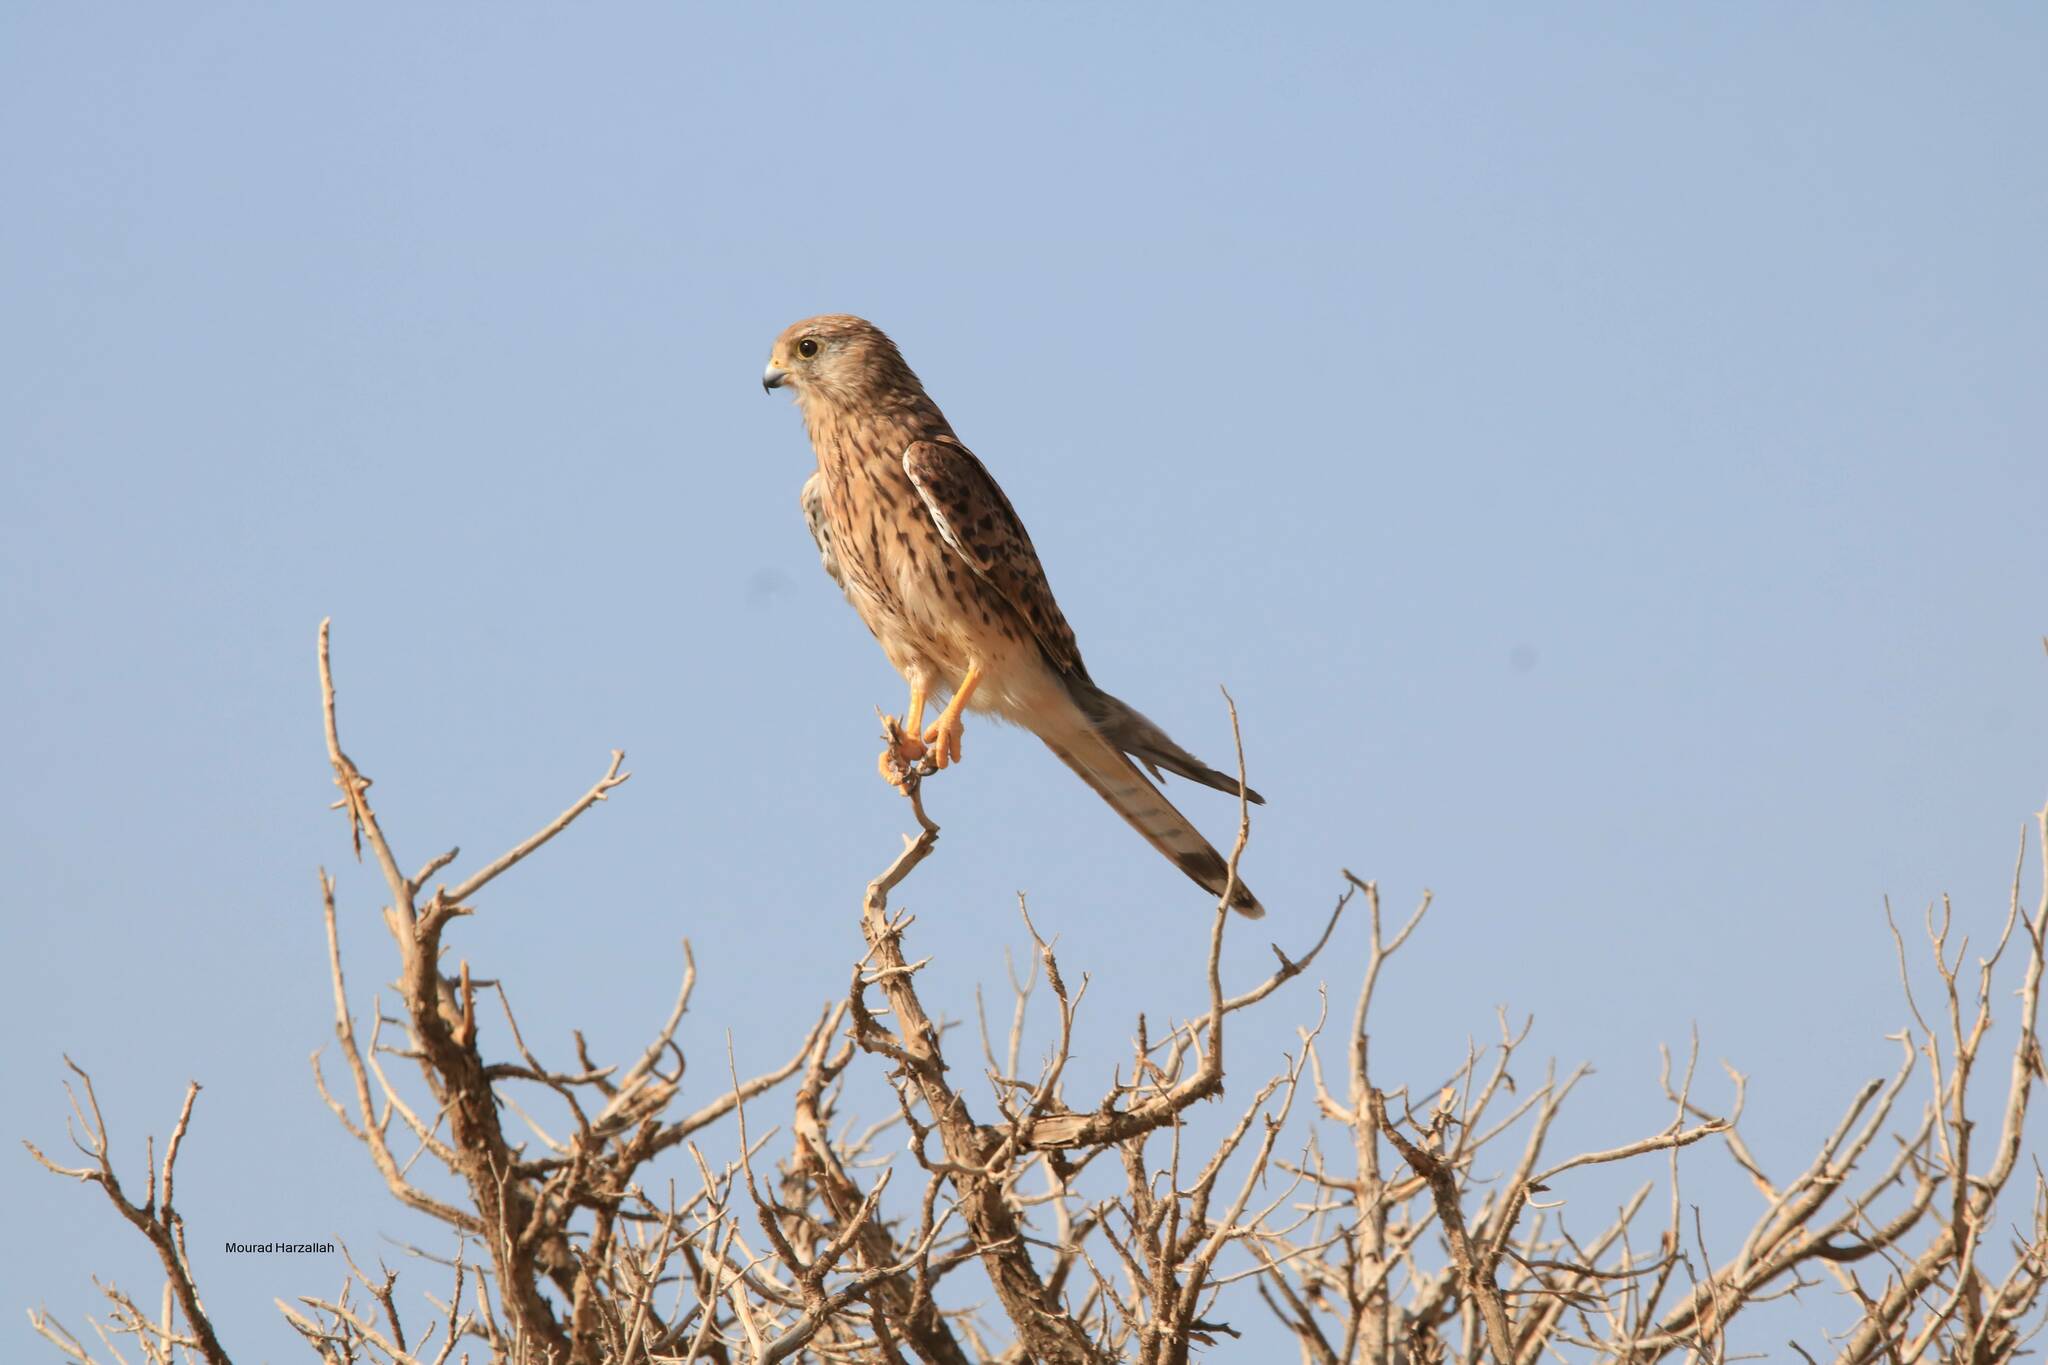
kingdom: Animalia
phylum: Chordata
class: Aves
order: Falconiformes
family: Falconidae
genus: Falco
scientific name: Falco tinnunculus
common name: Common kestrel
